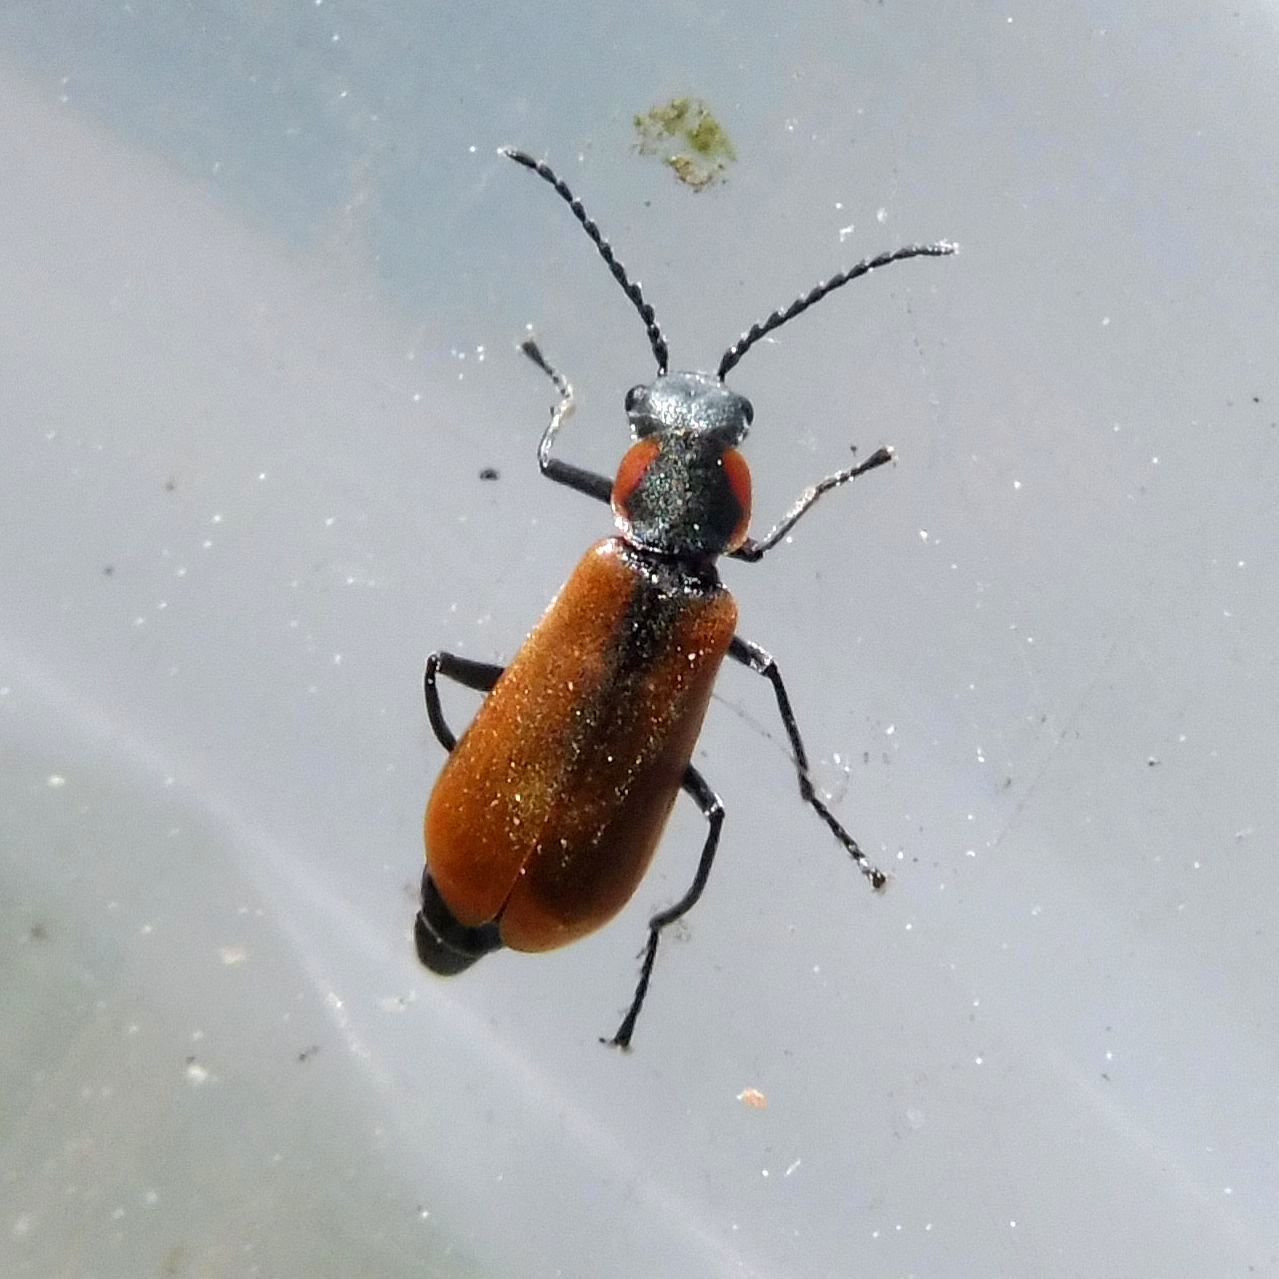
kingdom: Animalia
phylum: Arthropoda
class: Insecta
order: Coleoptera
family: Melyridae
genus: Anthocomus
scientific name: Anthocomus rufus
